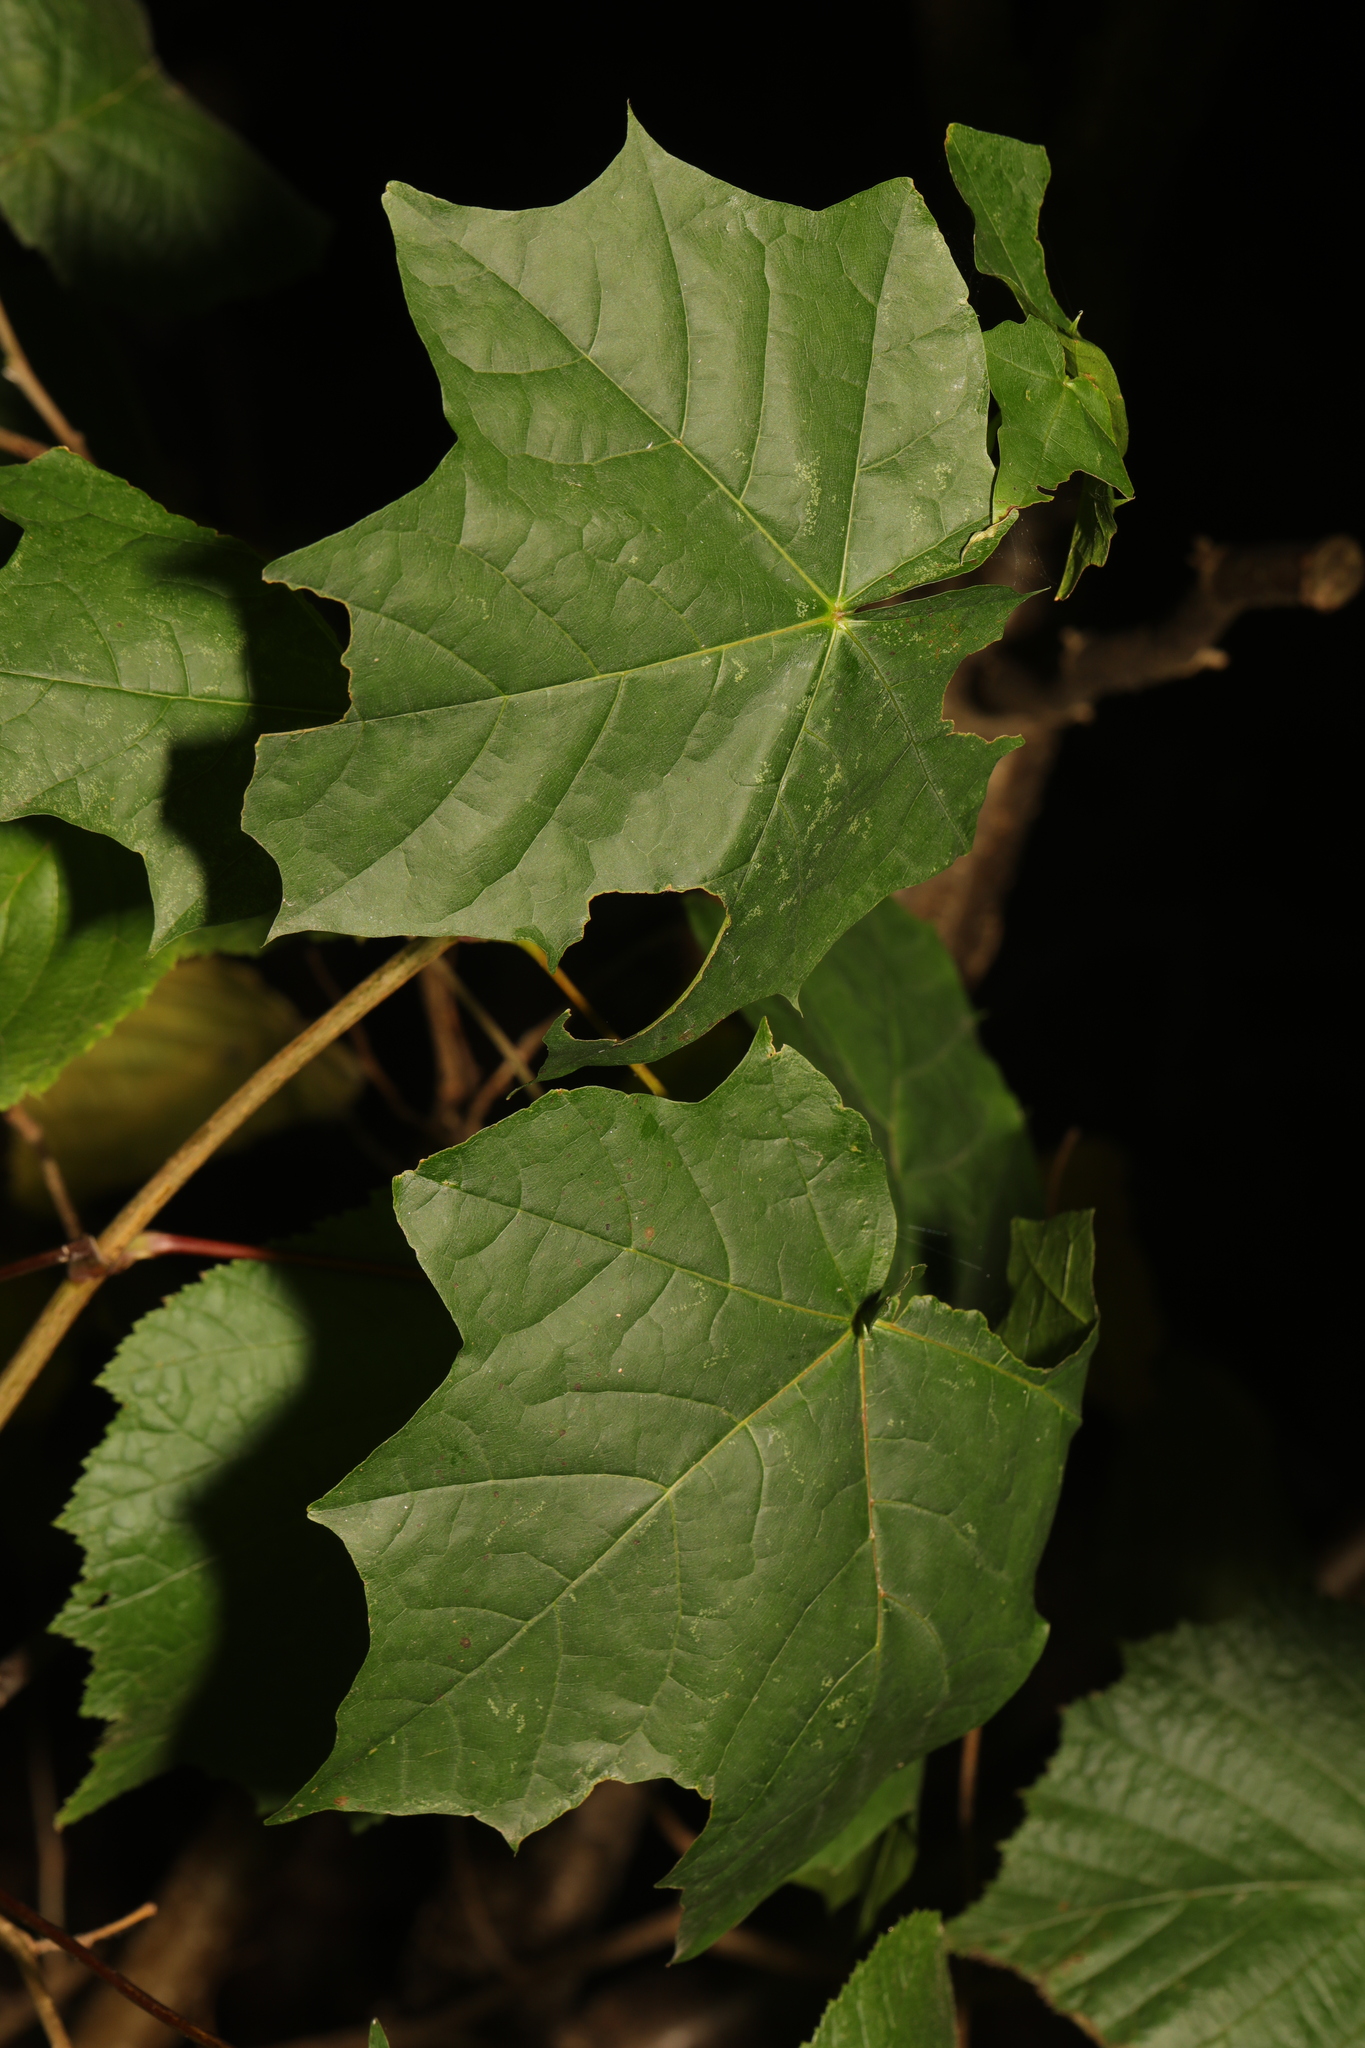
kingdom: Plantae
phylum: Tracheophyta
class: Magnoliopsida
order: Sapindales
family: Sapindaceae
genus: Acer
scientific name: Acer platanoides
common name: Norway maple
